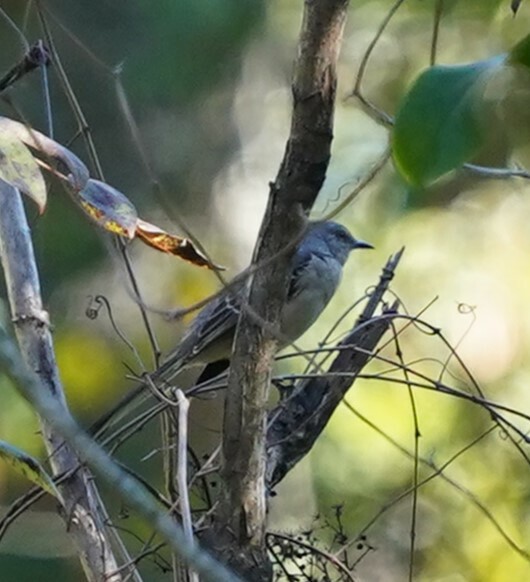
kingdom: Animalia
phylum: Chordata
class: Aves
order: Passeriformes
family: Mimidae
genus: Mimus
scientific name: Mimus polyglottos
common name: Northern mockingbird
